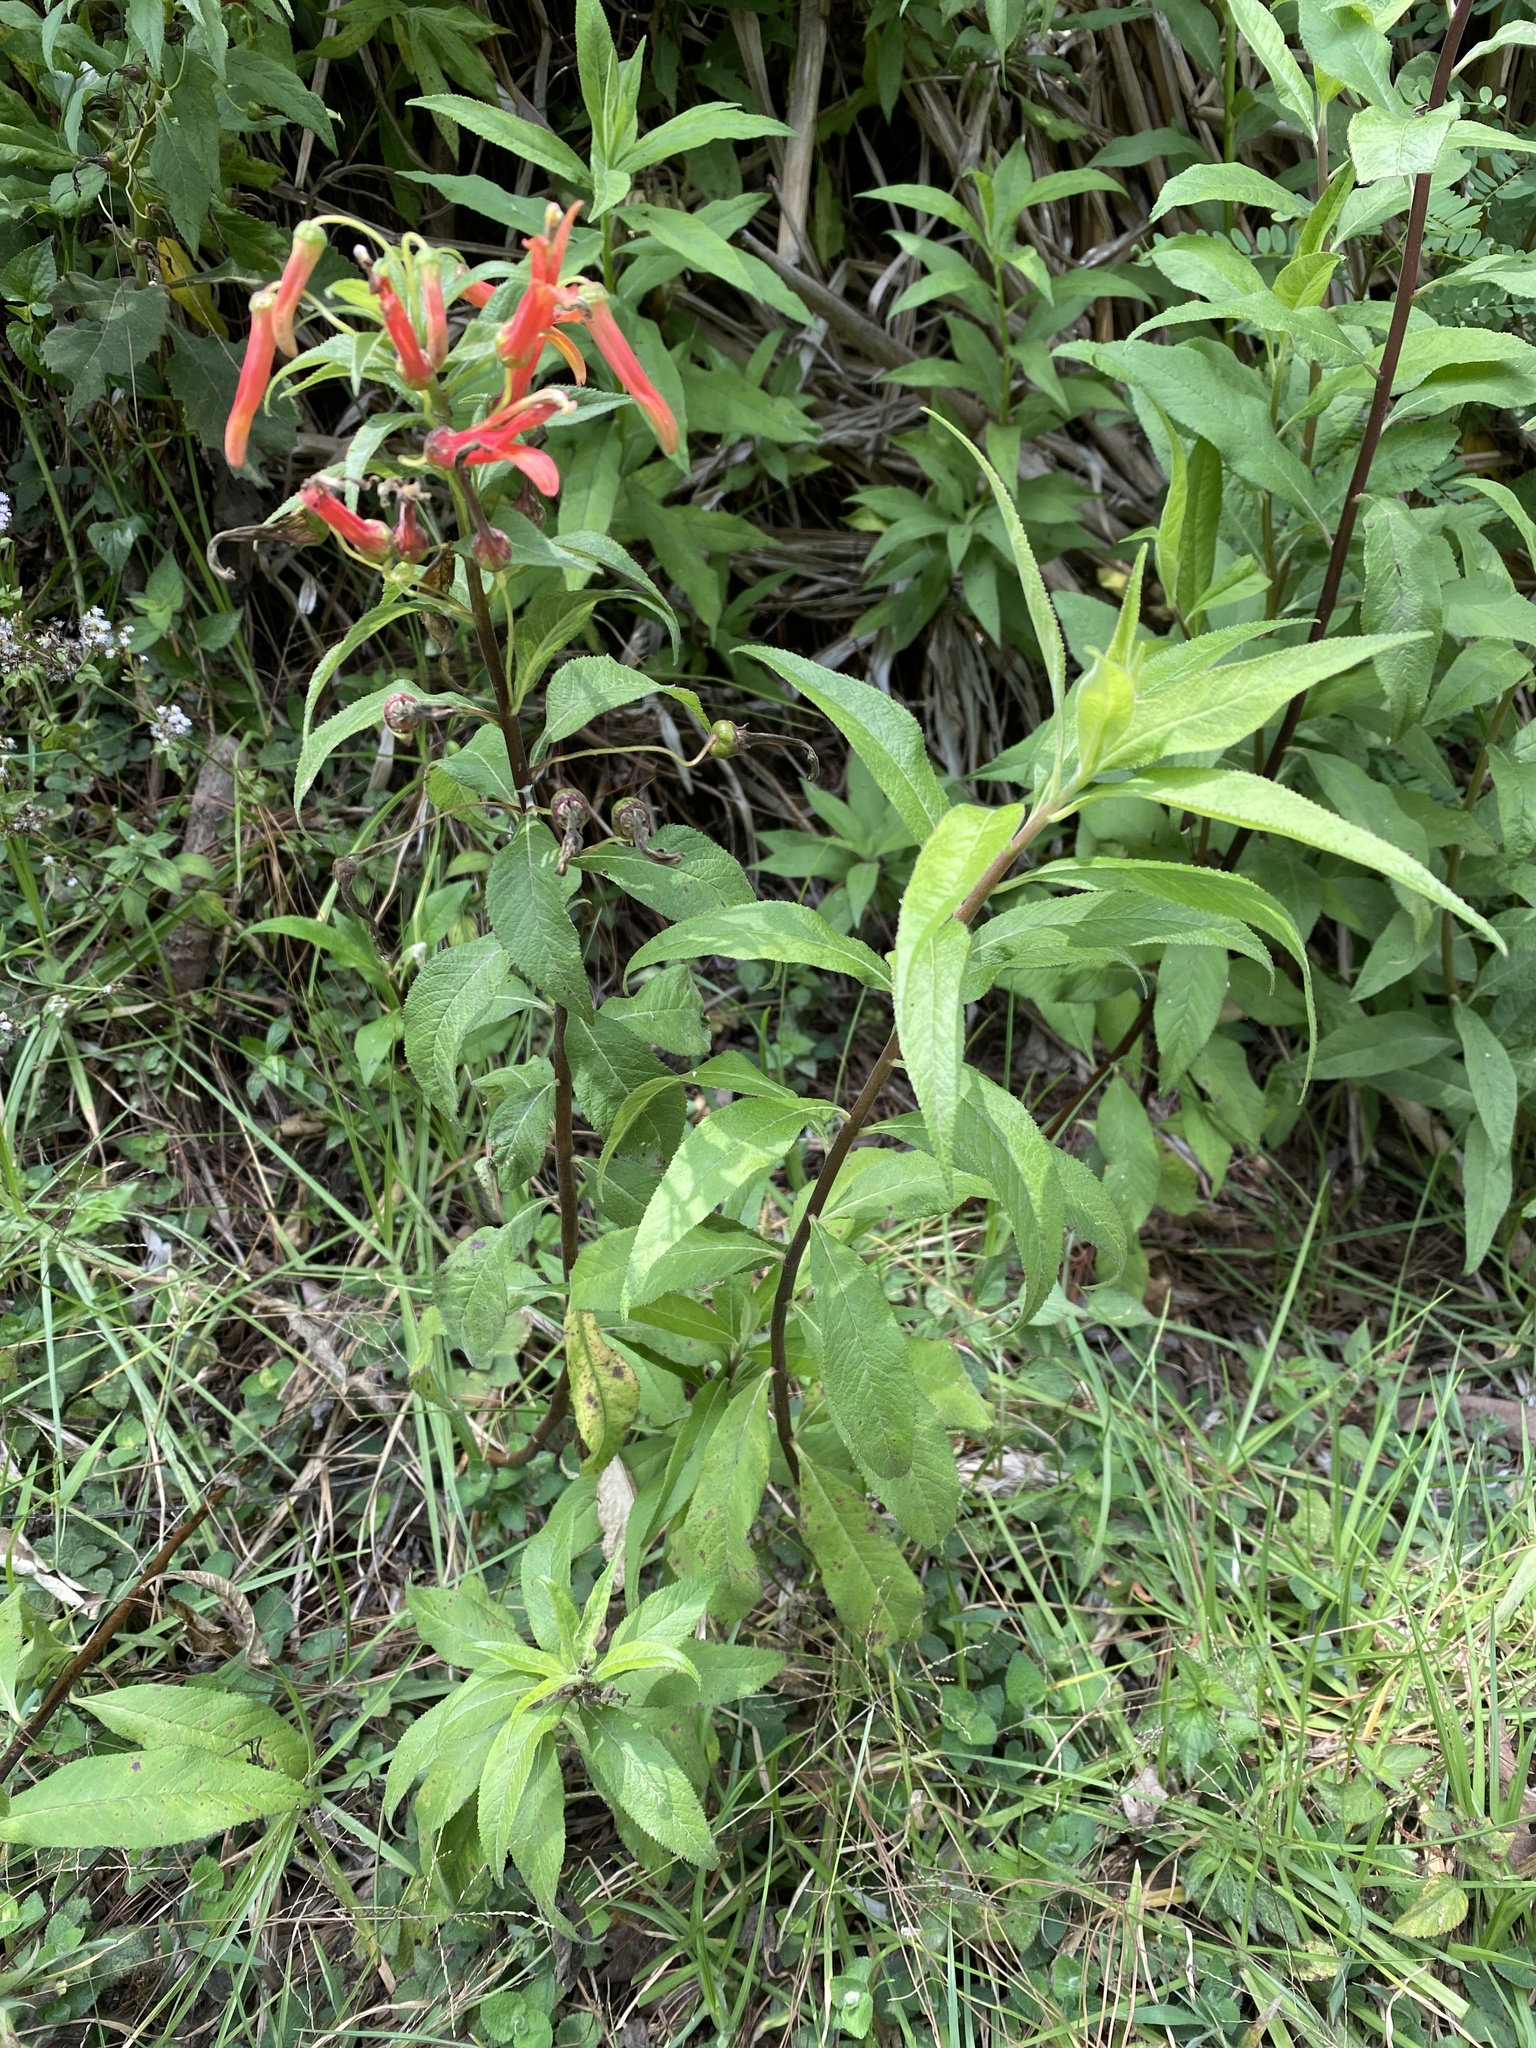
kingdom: Plantae
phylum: Tracheophyta
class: Magnoliopsida
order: Asterales
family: Campanulaceae
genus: Lobelia
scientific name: Lobelia laxiflora
